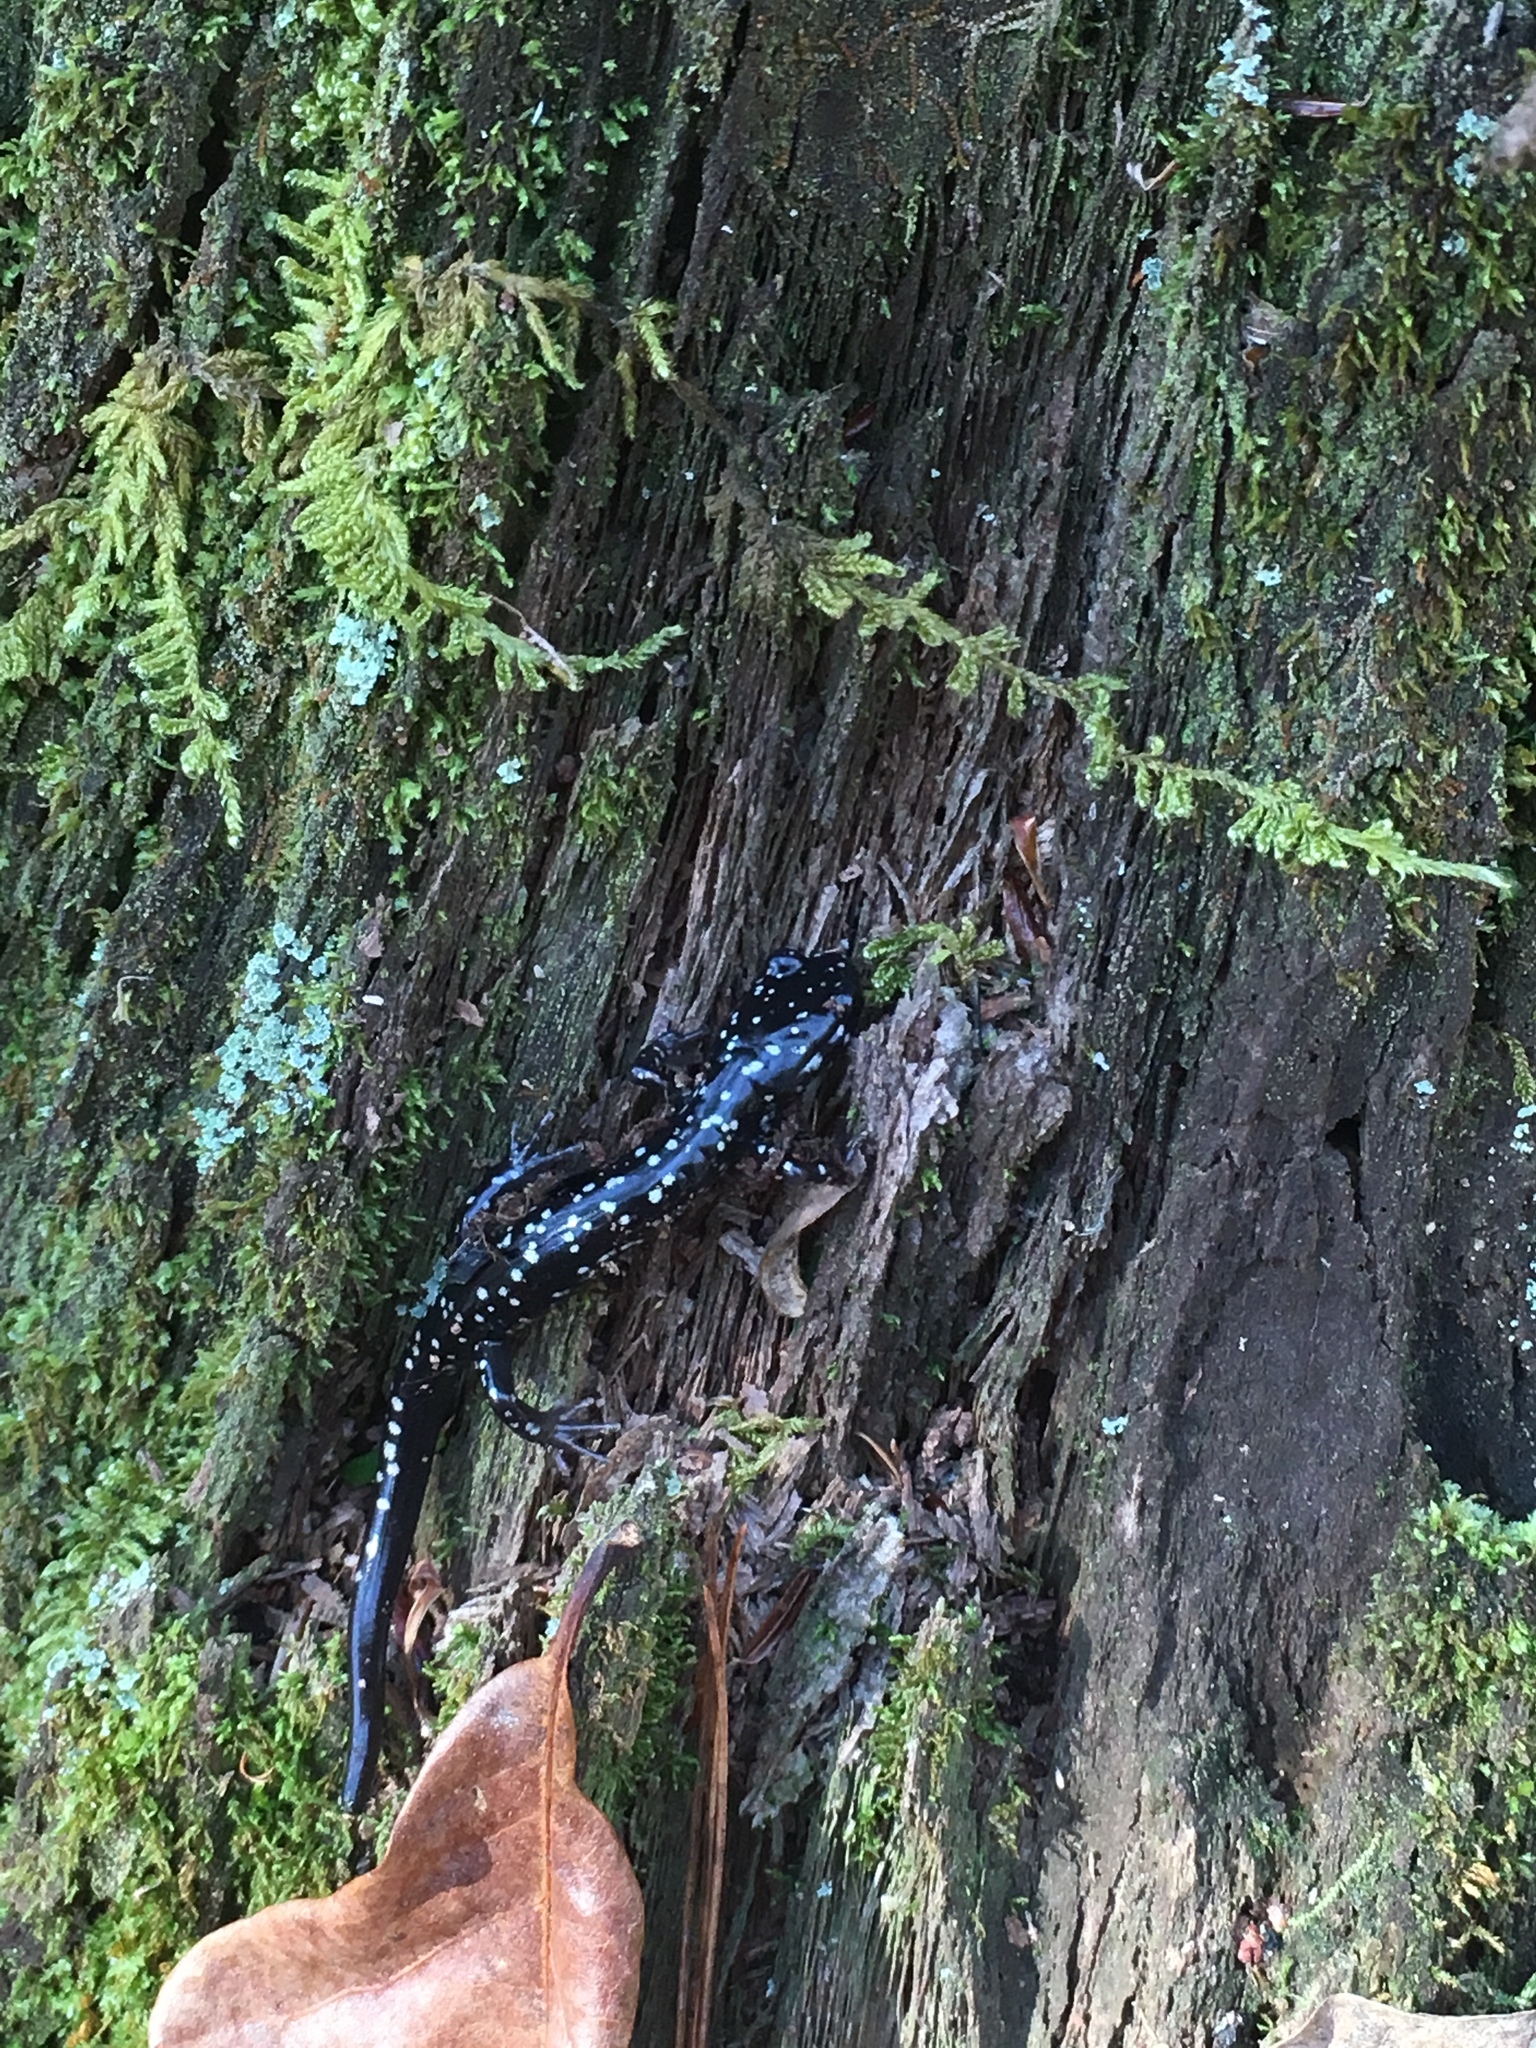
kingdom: Animalia
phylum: Chordata
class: Amphibia
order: Caudata
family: Plethodontidae
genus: Plethodon
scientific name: Plethodon glutinosus
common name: Northern slimy salamander
